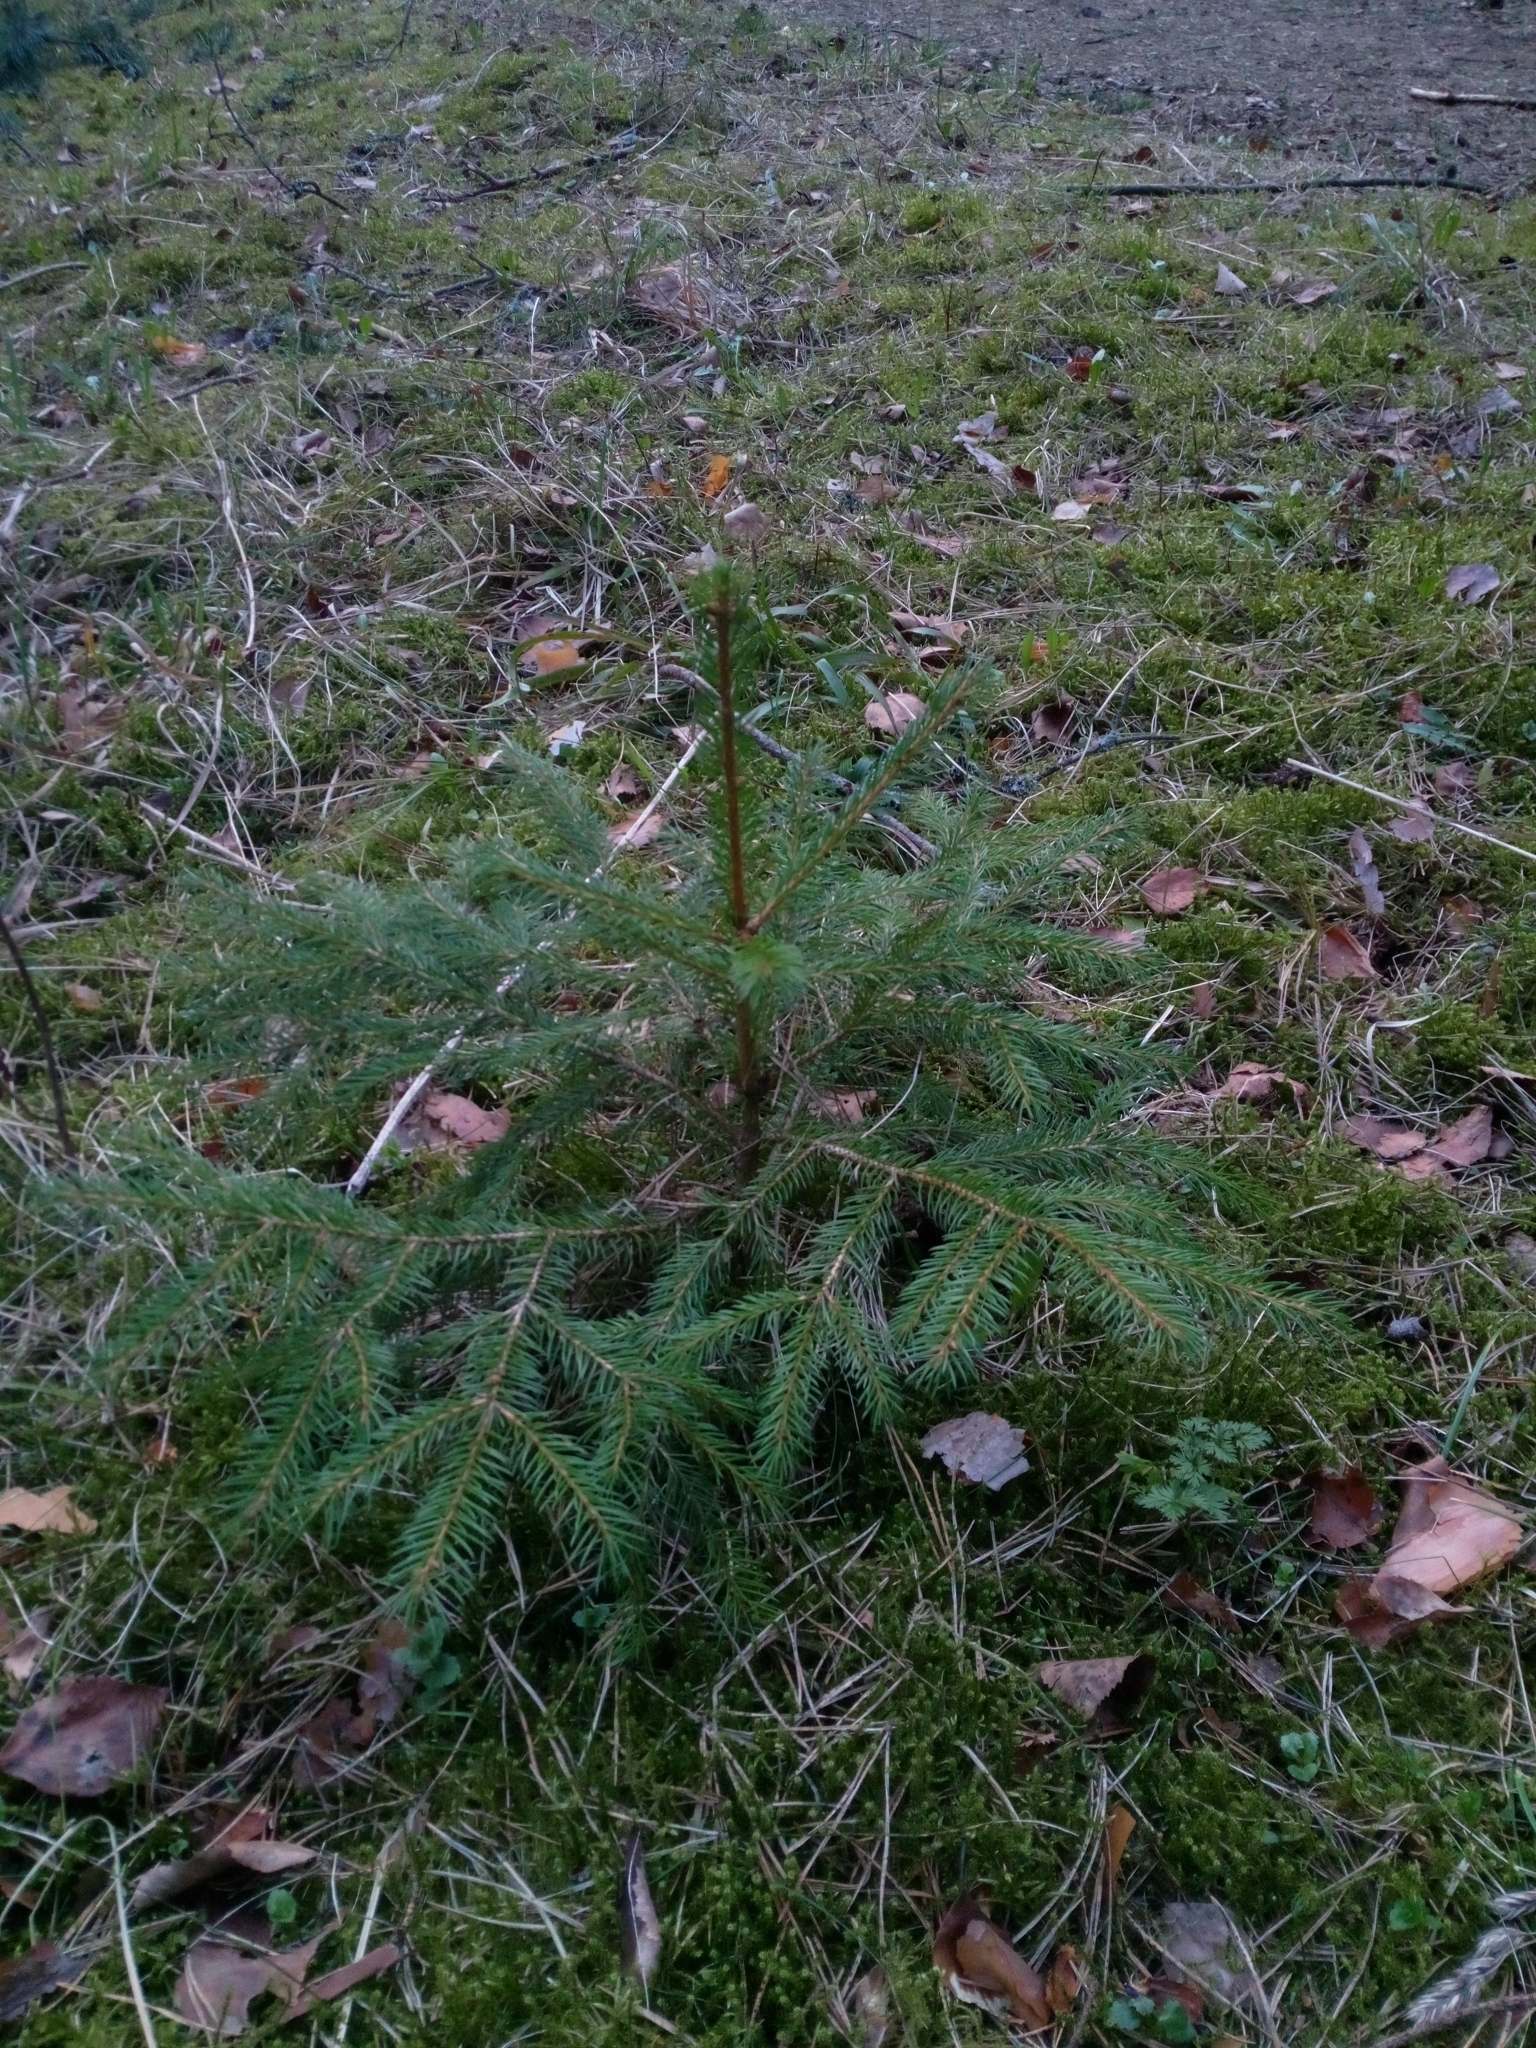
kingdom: Plantae
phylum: Tracheophyta
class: Pinopsida
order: Pinales
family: Pinaceae
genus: Picea
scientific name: Picea abies
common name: Norway spruce
